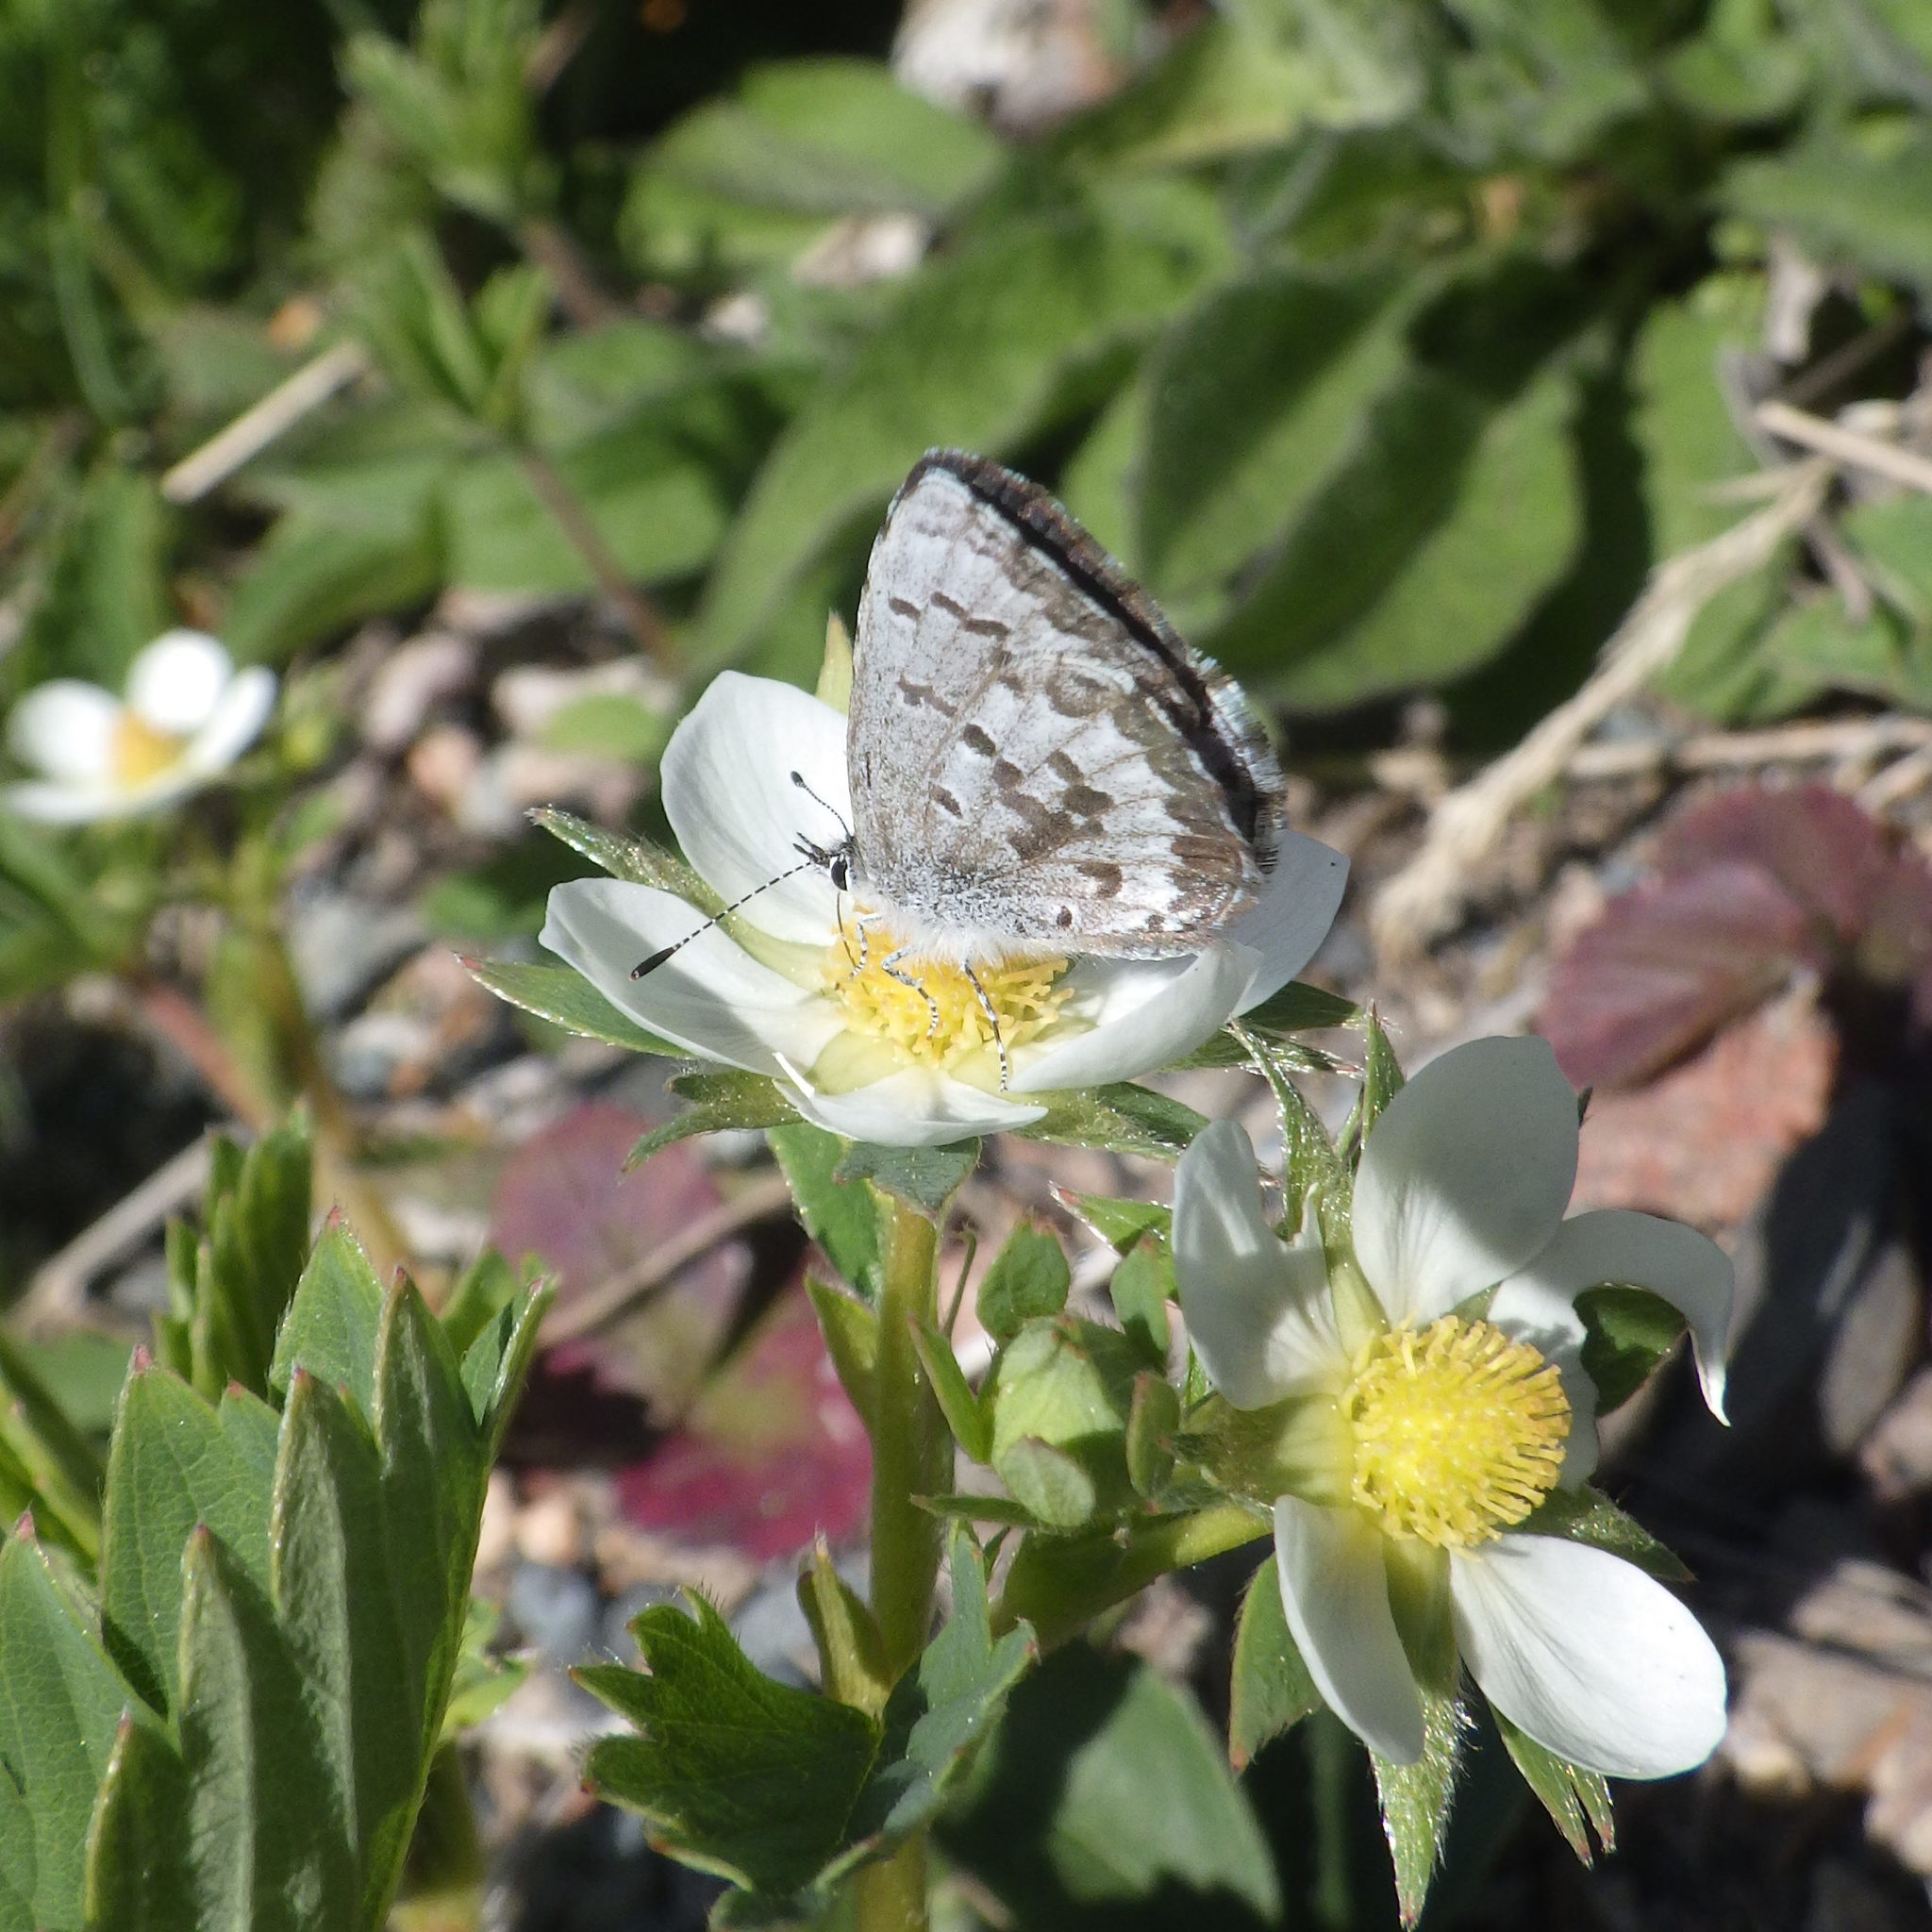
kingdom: Animalia
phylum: Arthropoda
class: Insecta
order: Lepidoptera
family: Lycaenidae
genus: Celastrina
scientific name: Celastrina lucia
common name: Lucia azure
